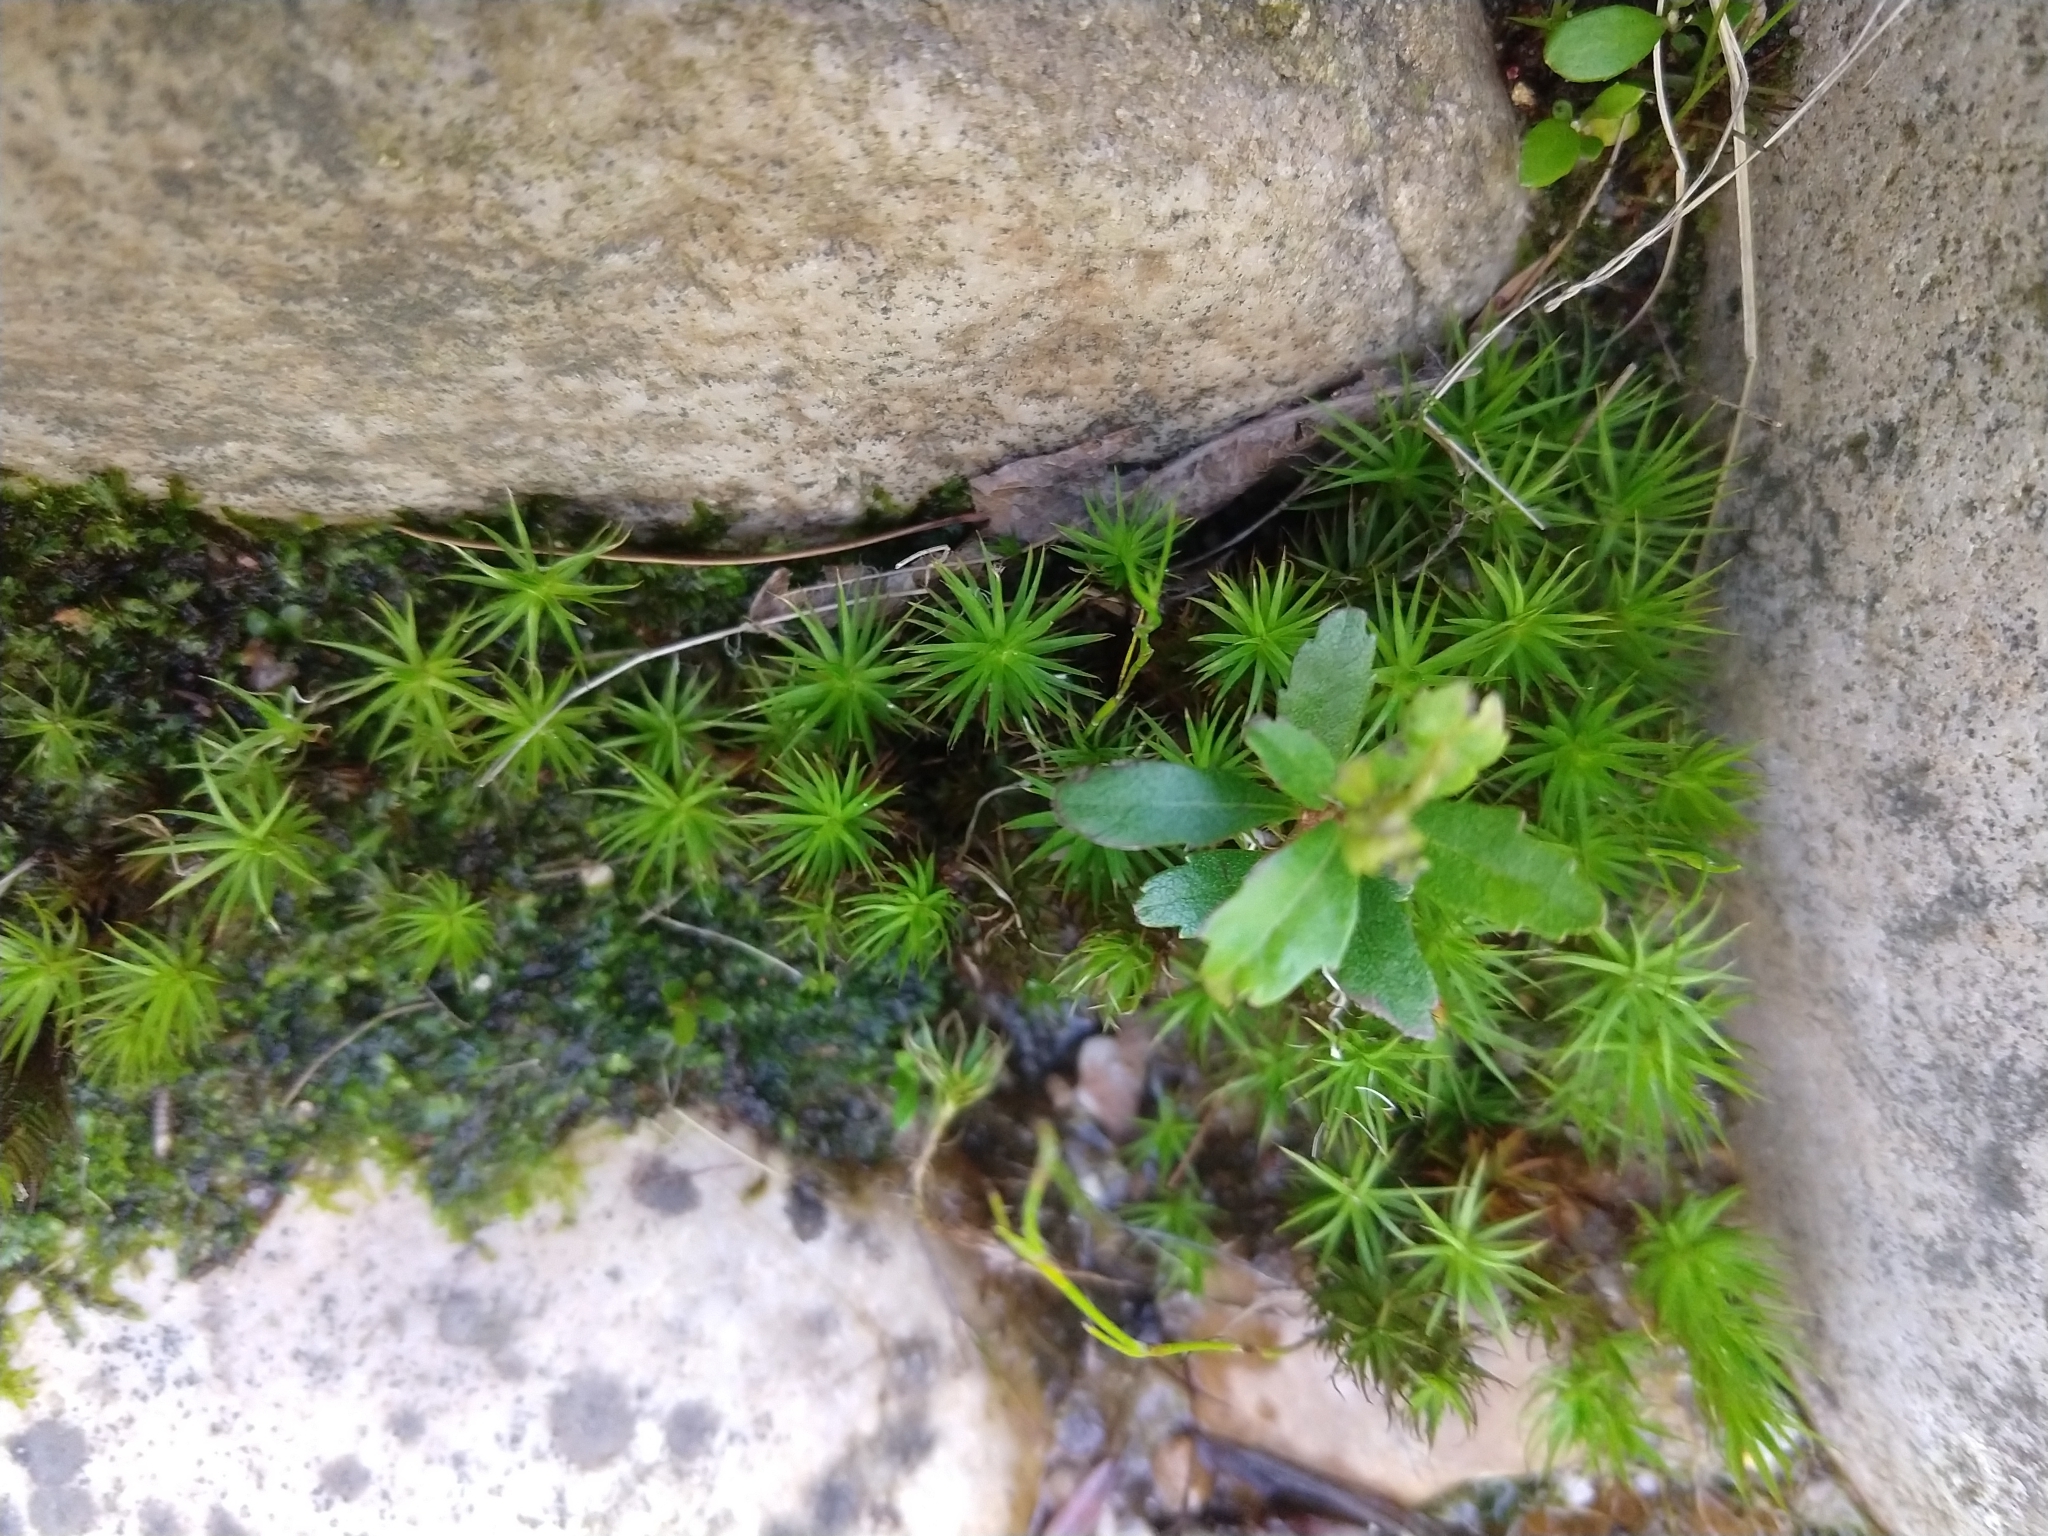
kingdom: Plantae
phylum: Bryophyta
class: Polytrichopsida
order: Polytrichales
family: Polytrichaceae
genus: Polytrichum
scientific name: Polytrichum commune
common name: Common haircap
